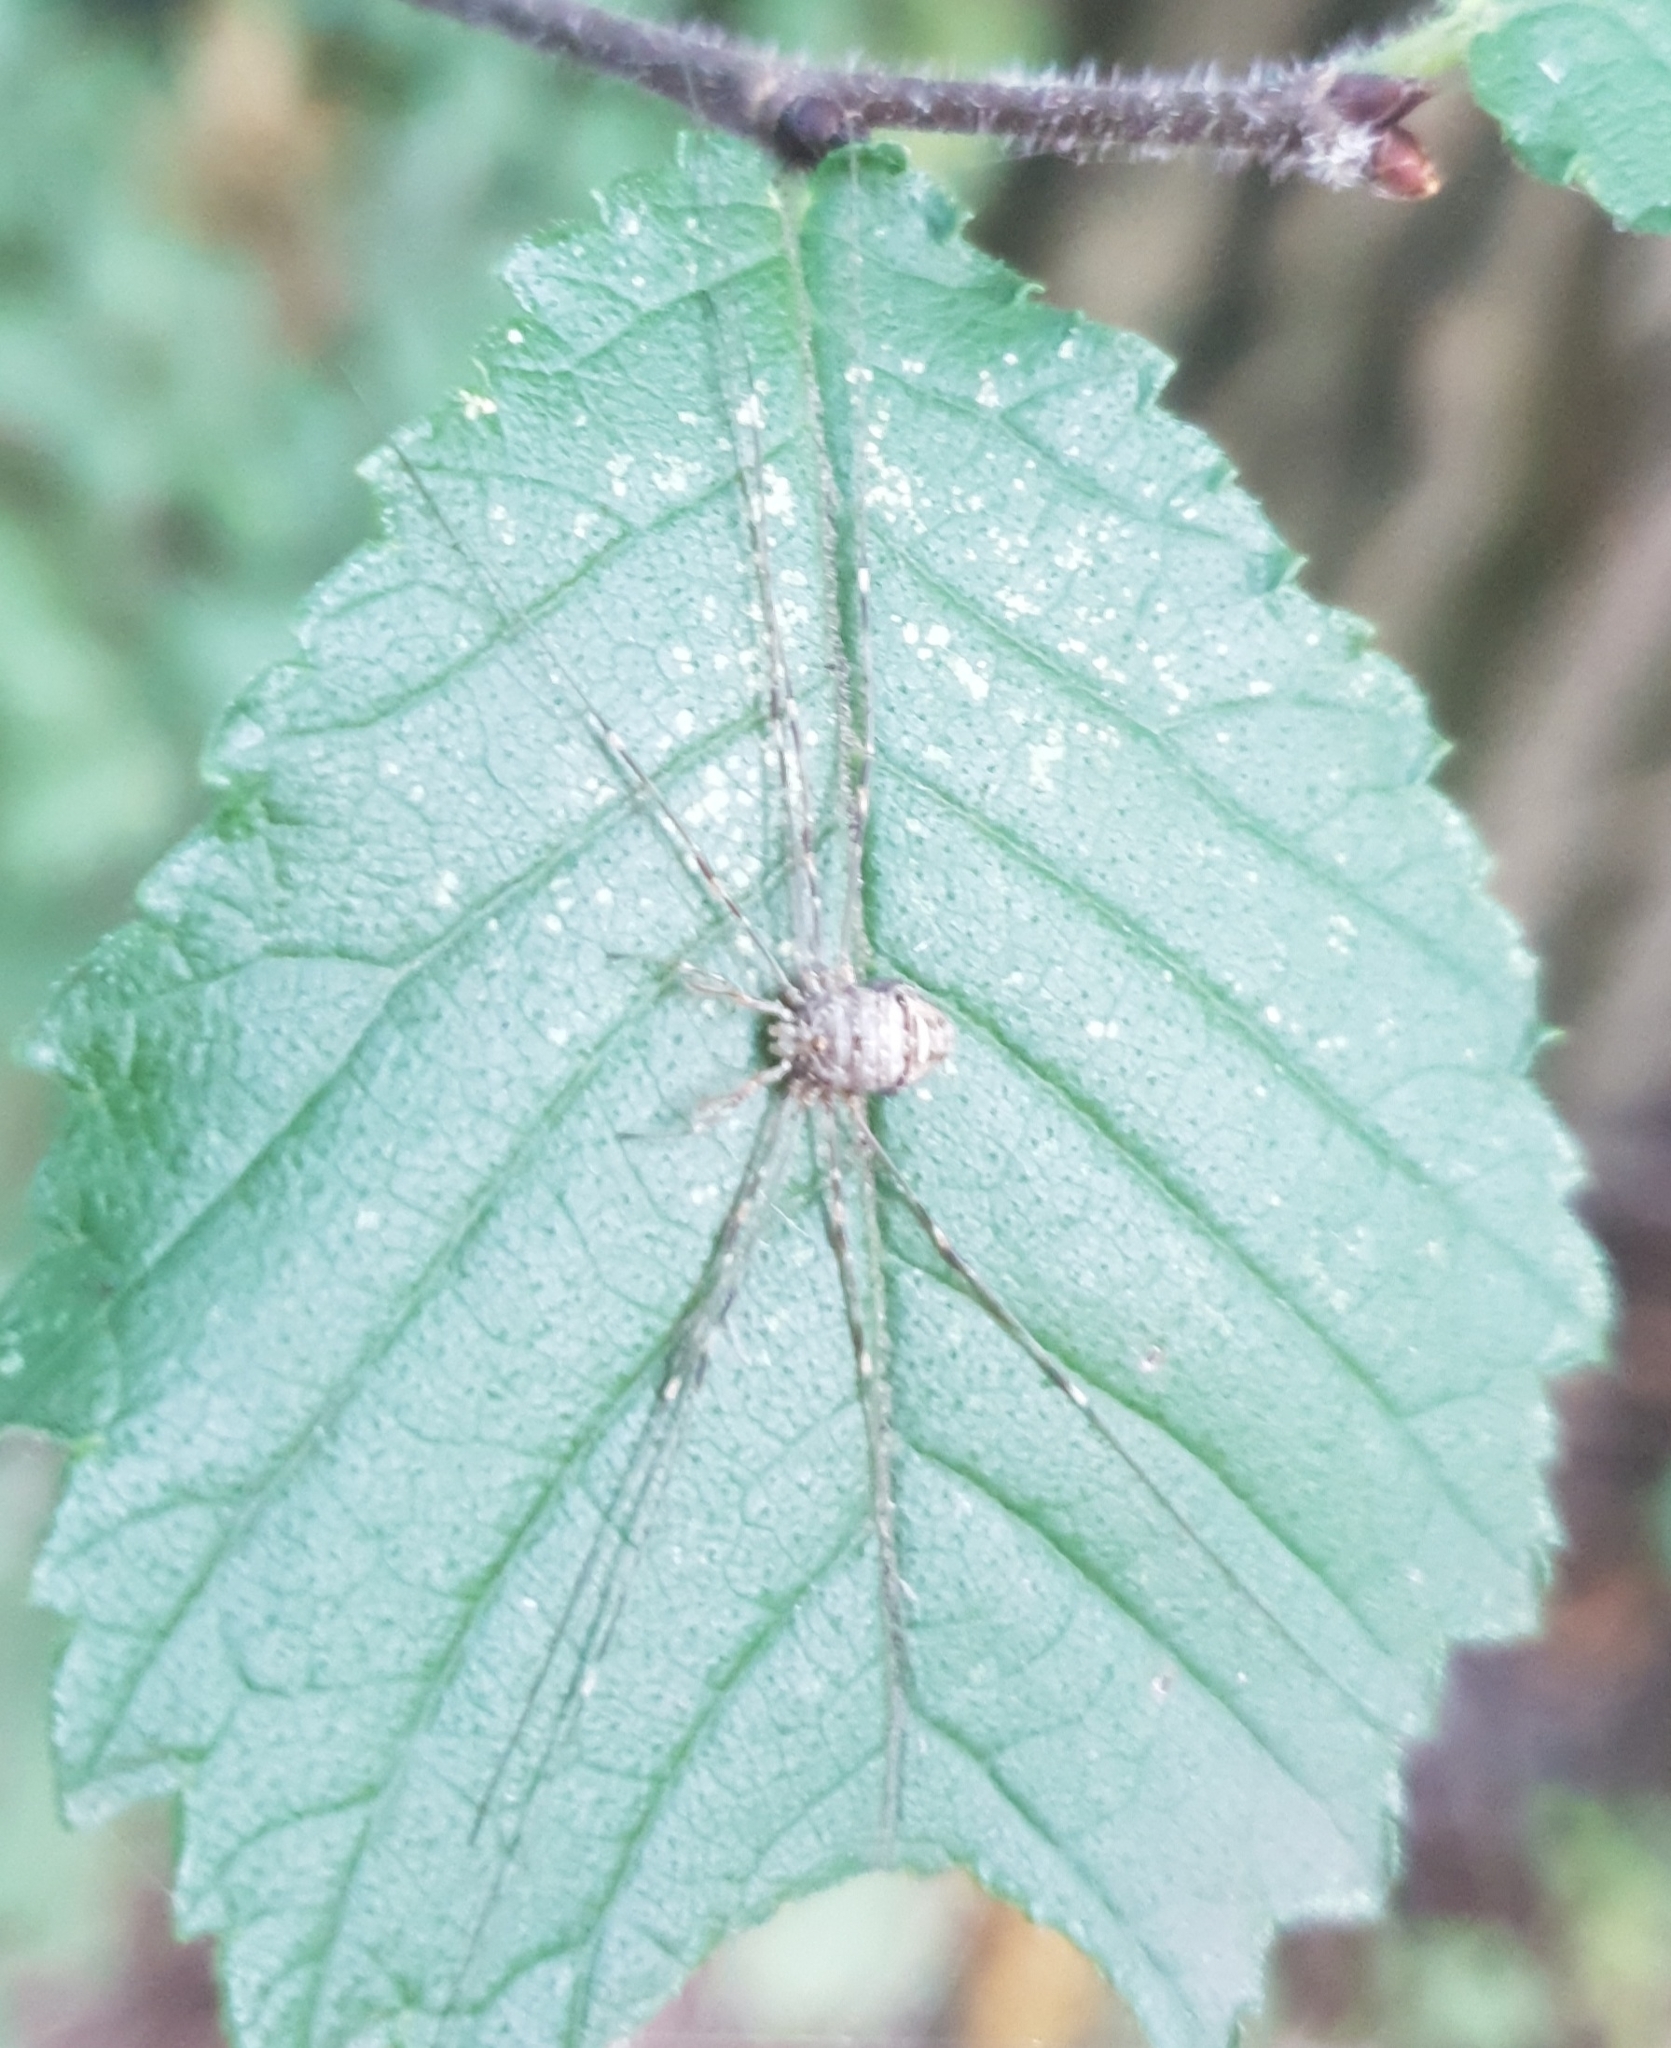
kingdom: Animalia
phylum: Arthropoda
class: Arachnida
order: Opiliones
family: Phalangiidae
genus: Dicranopalpus
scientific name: Dicranopalpus ramosus
